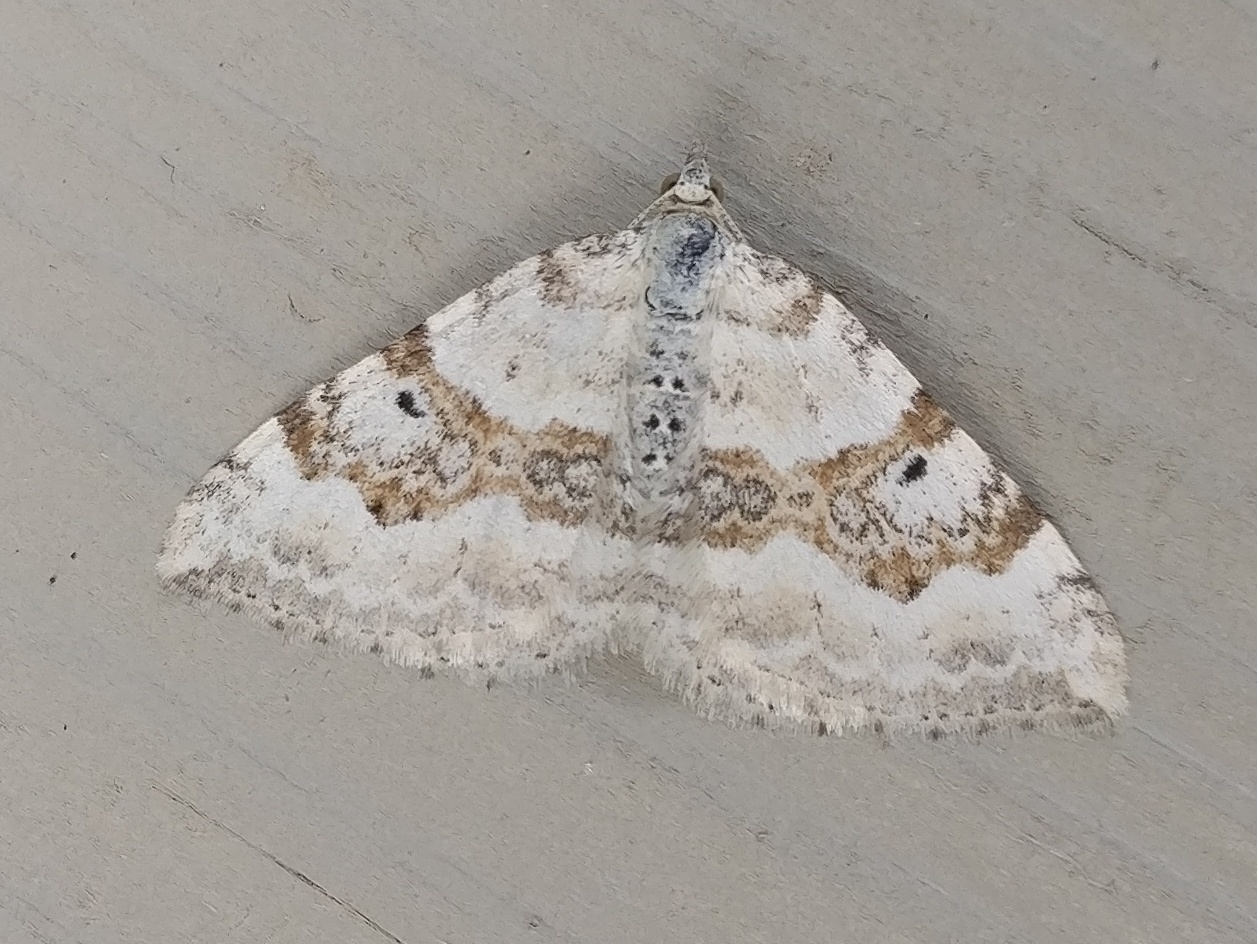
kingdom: Animalia
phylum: Arthropoda
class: Insecta
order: Lepidoptera
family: Geometridae
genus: Xanthorhoe
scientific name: Xanthorhoe montanata
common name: Silver-ground carpet
